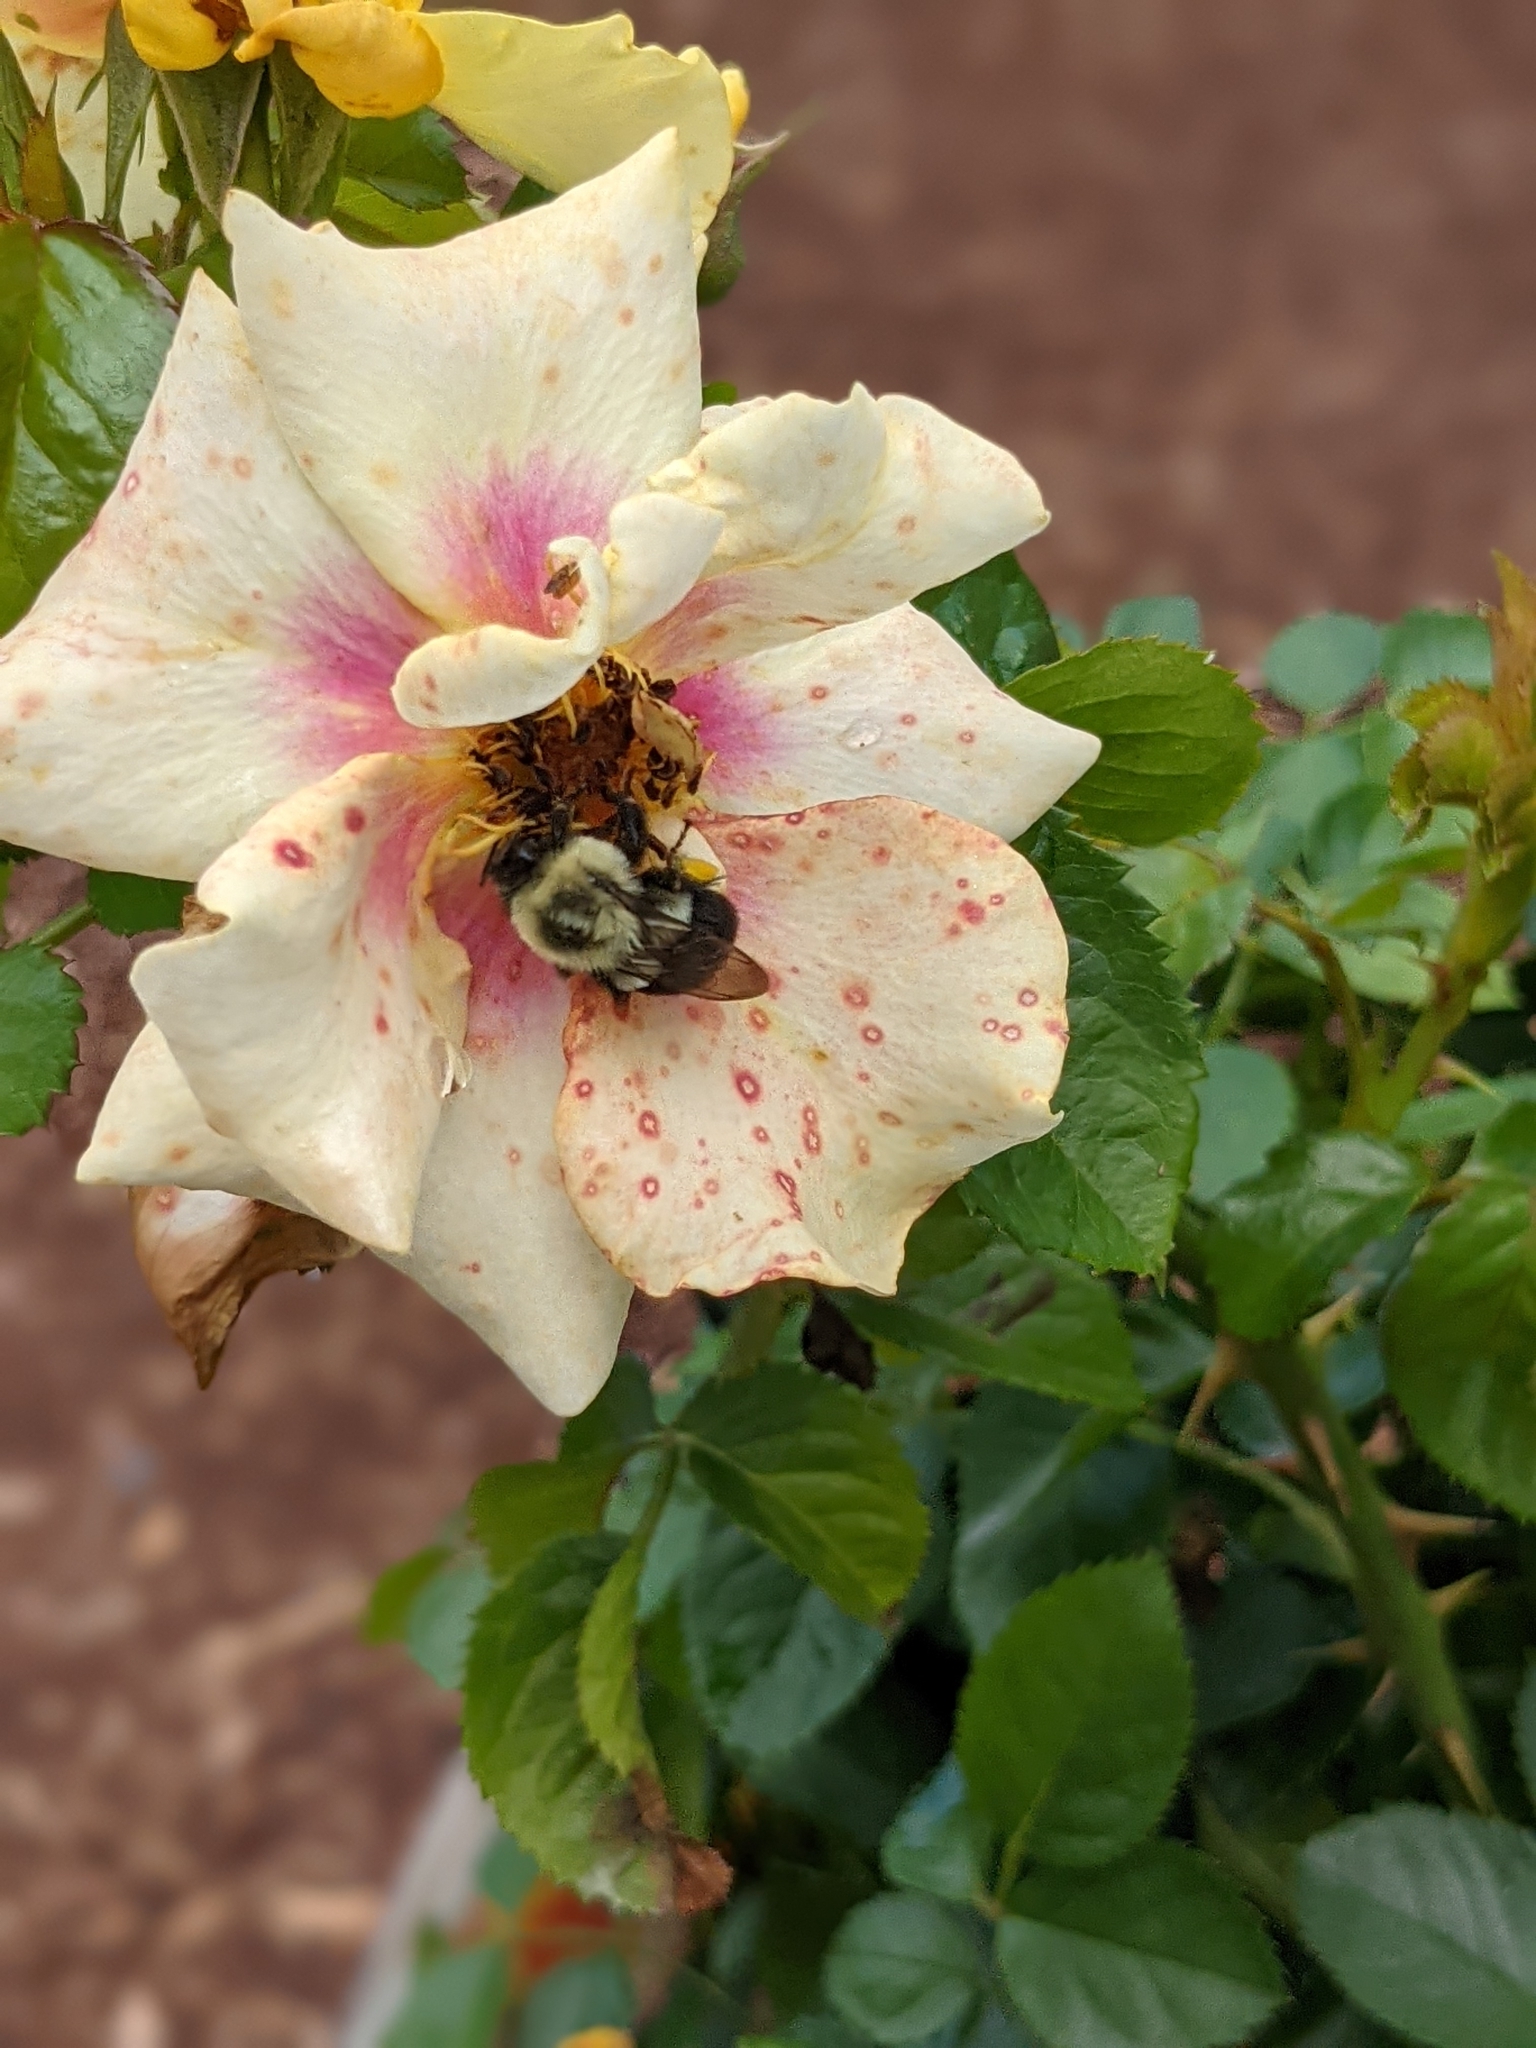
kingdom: Animalia
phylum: Arthropoda
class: Insecta
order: Hymenoptera
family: Apidae
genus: Bombus
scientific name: Bombus impatiens
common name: Common eastern bumble bee
